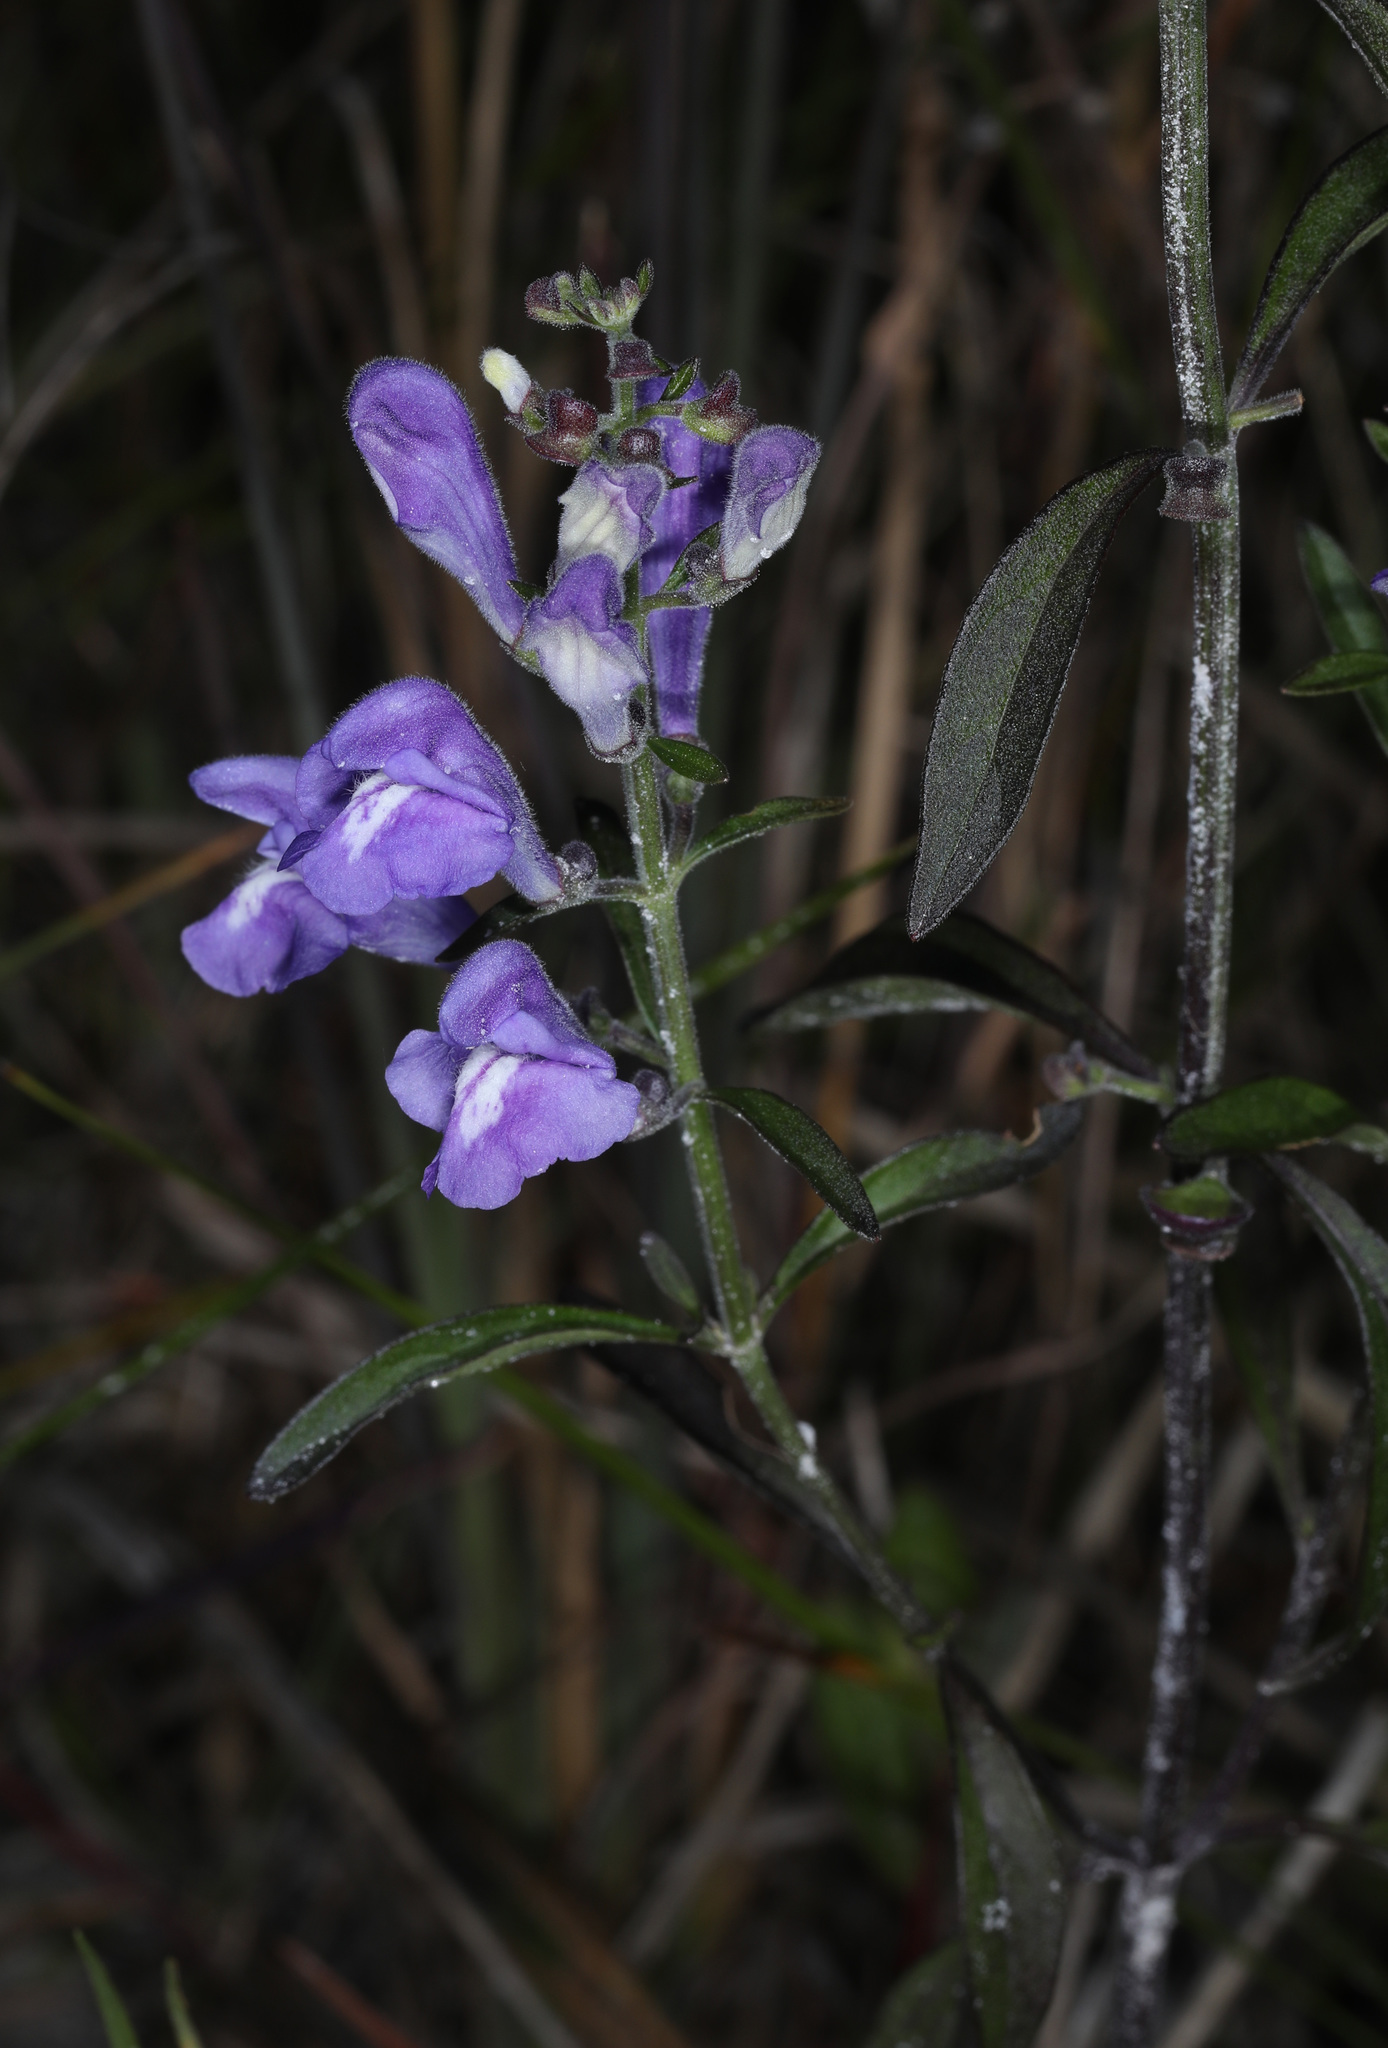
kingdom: Plantae
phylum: Tracheophyta
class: Magnoliopsida
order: Lamiales
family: Lamiaceae
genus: Scutellaria
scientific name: Scutellaria integrifolia
